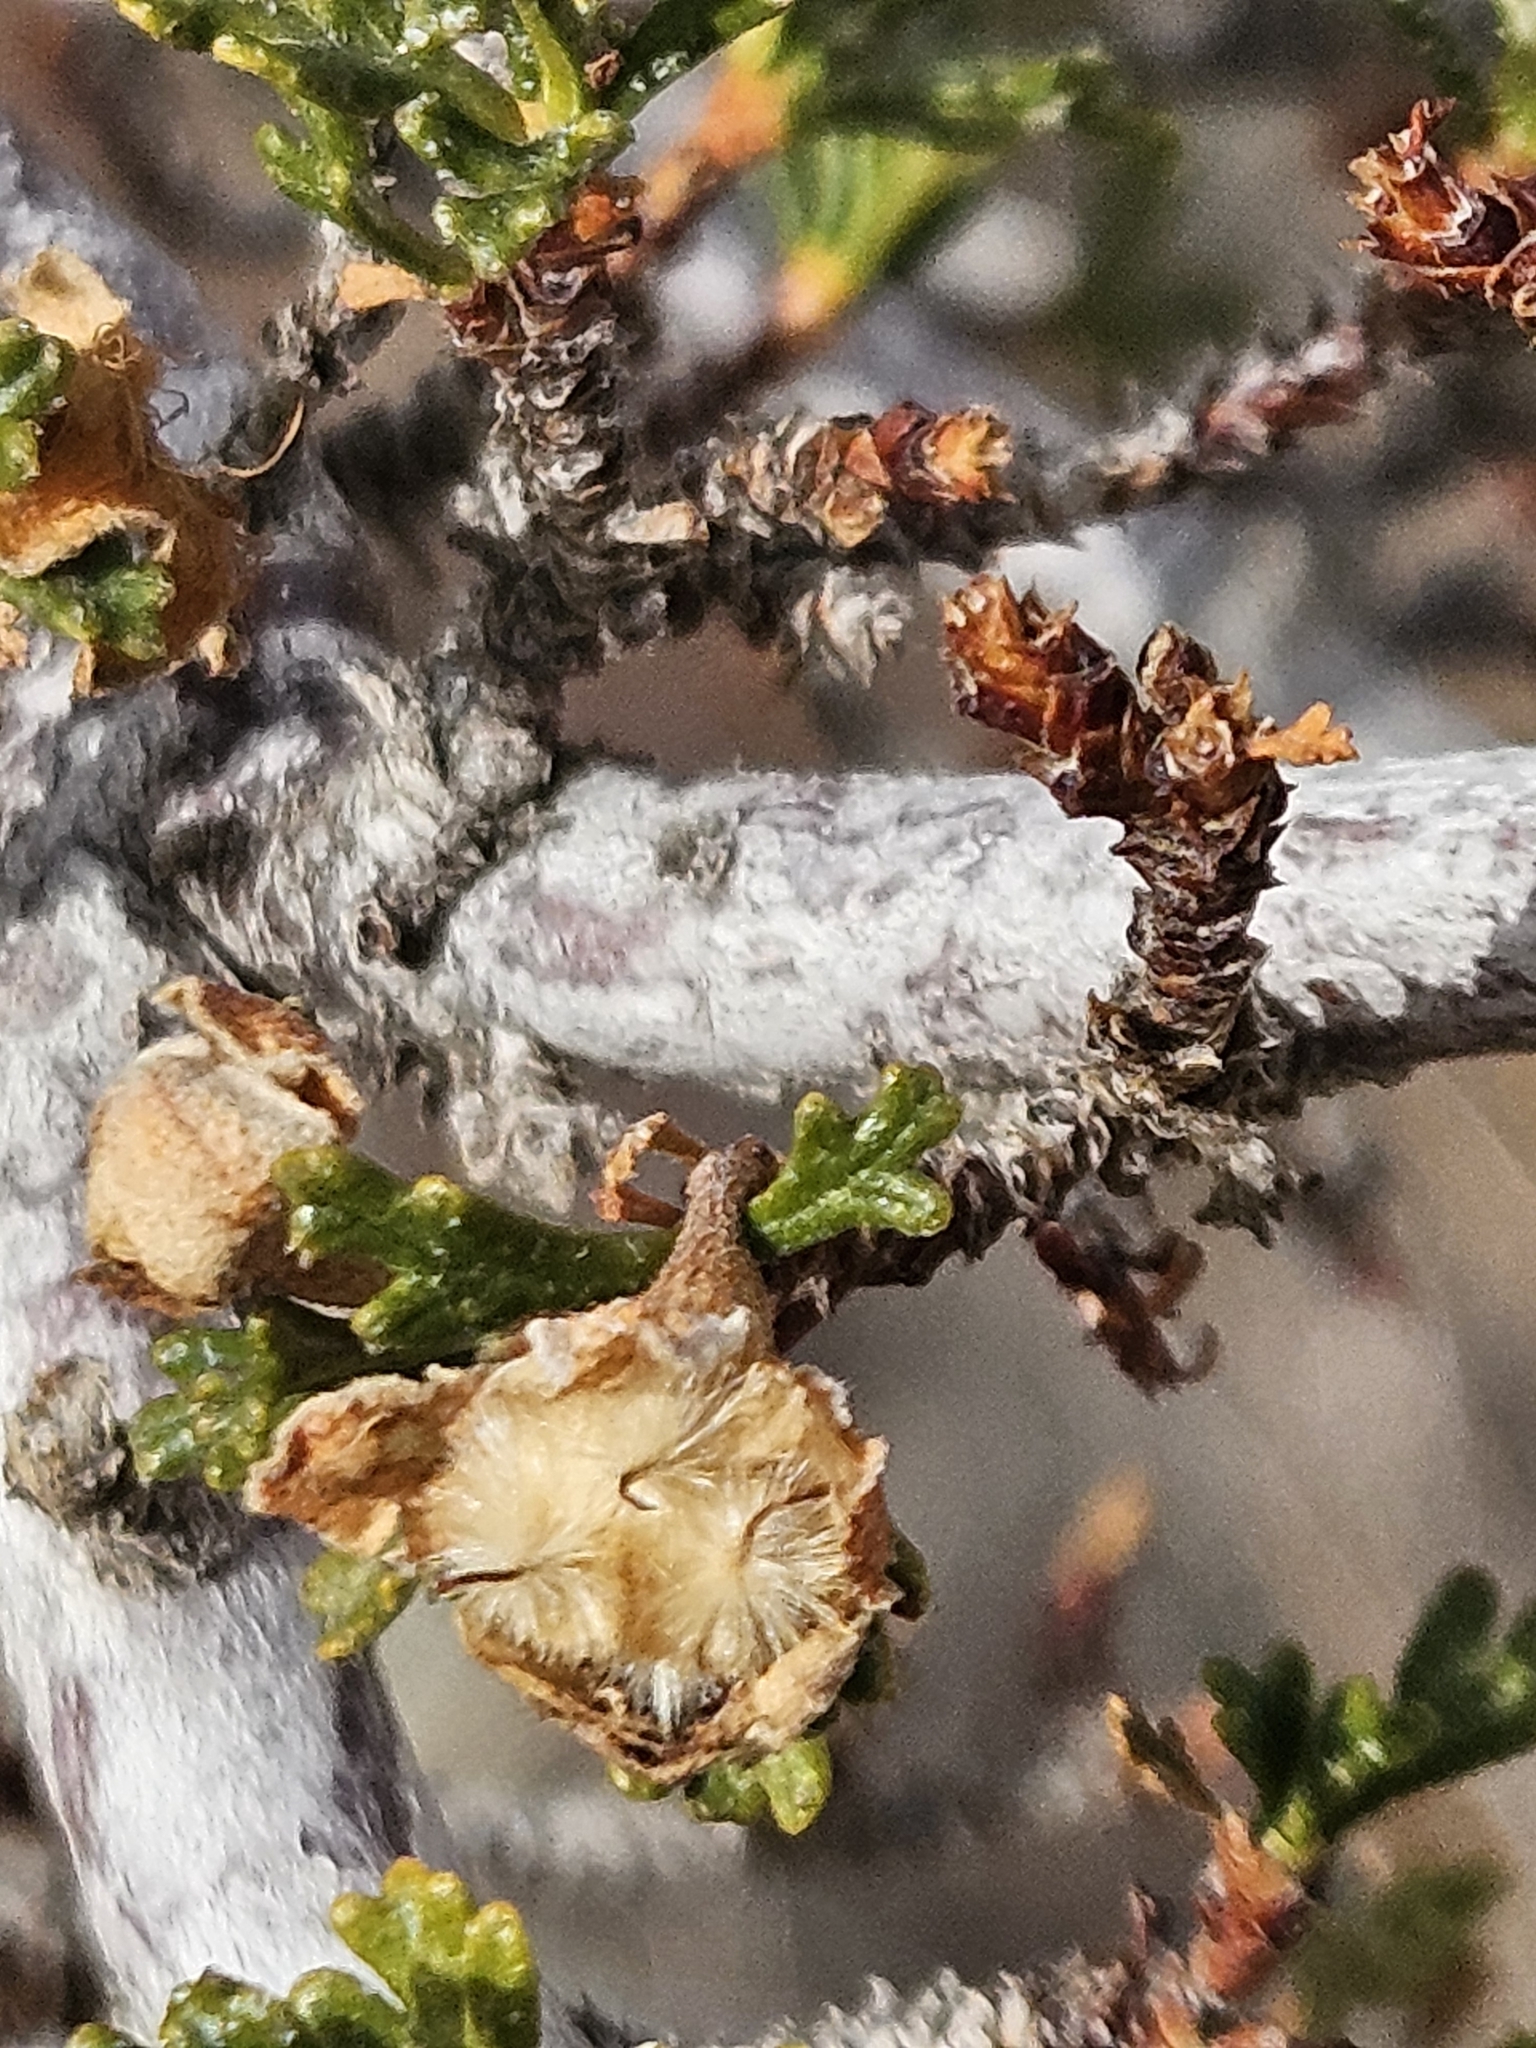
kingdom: Plantae
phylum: Tracheophyta
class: Magnoliopsida
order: Rosales
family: Rosaceae
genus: Purshia
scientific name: Purshia stansburiana
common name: Stansbury's cliffrose
